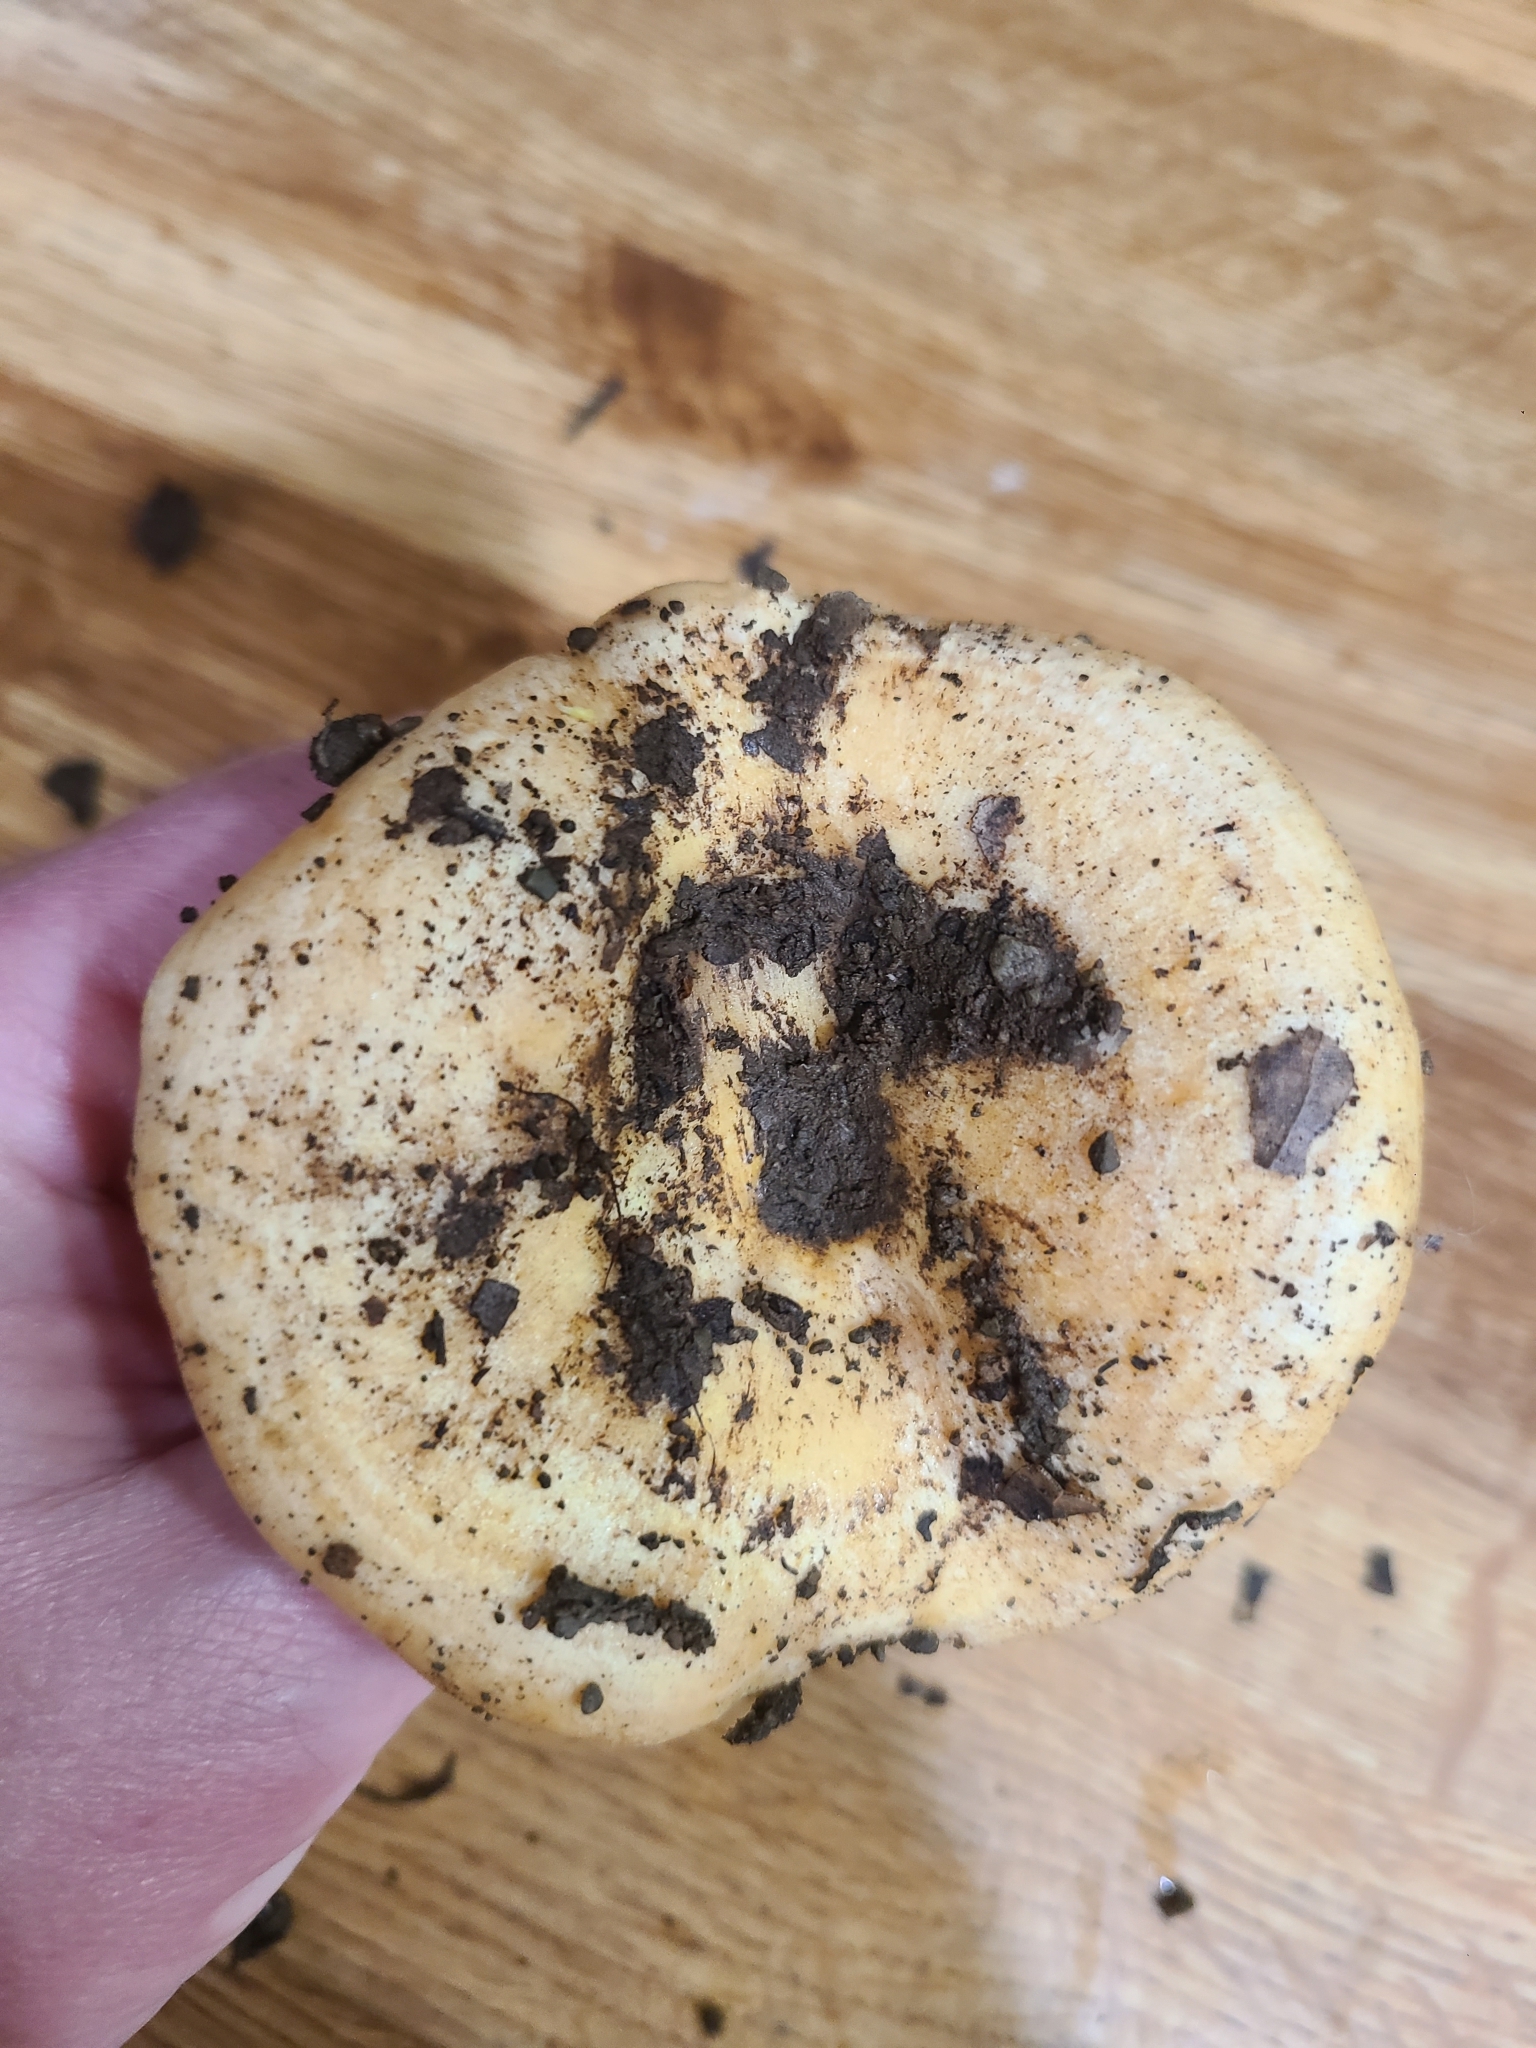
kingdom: Fungi
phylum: Basidiomycota
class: Agaricomycetes
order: Russulales
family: Russulaceae
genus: Lactarius
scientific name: Lactarius alnicola
